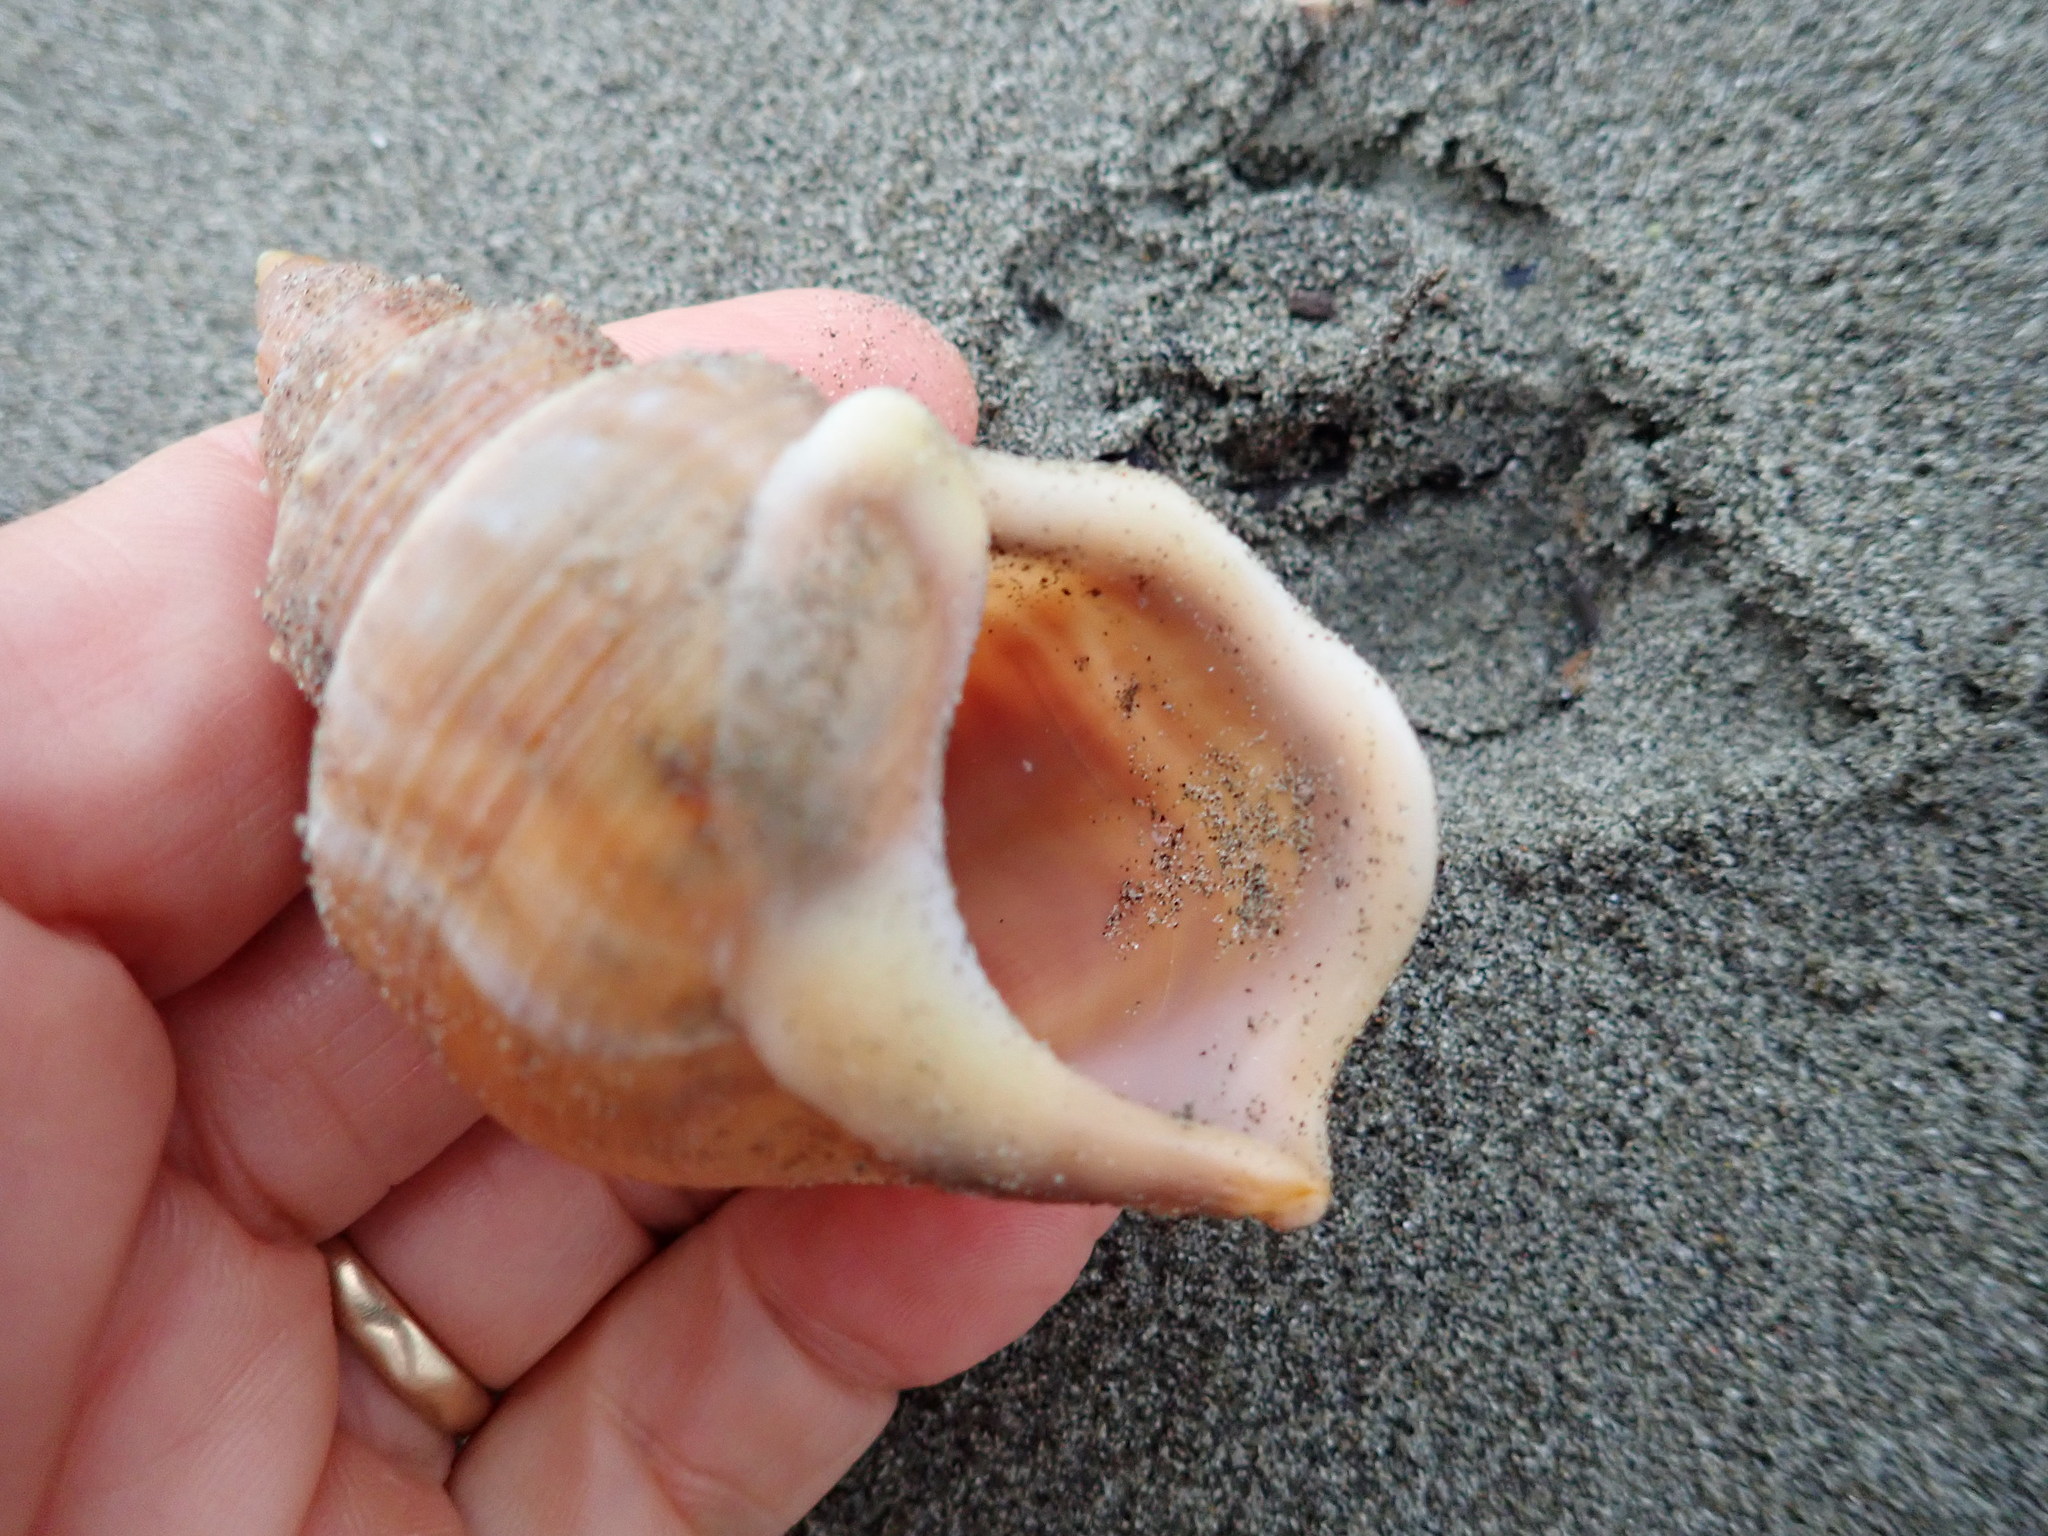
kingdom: Animalia
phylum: Mollusca
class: Gastropoda
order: Littorinimorpha
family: Struthiolariidae
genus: Struthiolaria
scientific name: Struthiolaria papulosa
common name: Large ostrich foot
